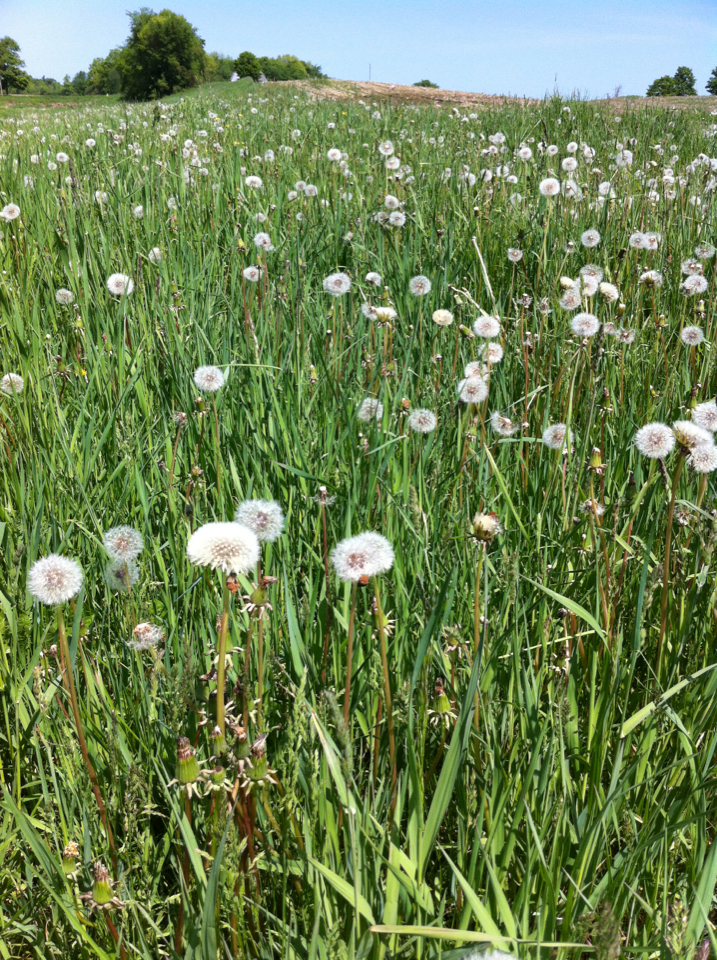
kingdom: Plantae
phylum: Tracheophyta
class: Magnoliopsida
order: Asterales
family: Asteraceae
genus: Taraxacum
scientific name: Taraxacum officinale
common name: Common dandelion
